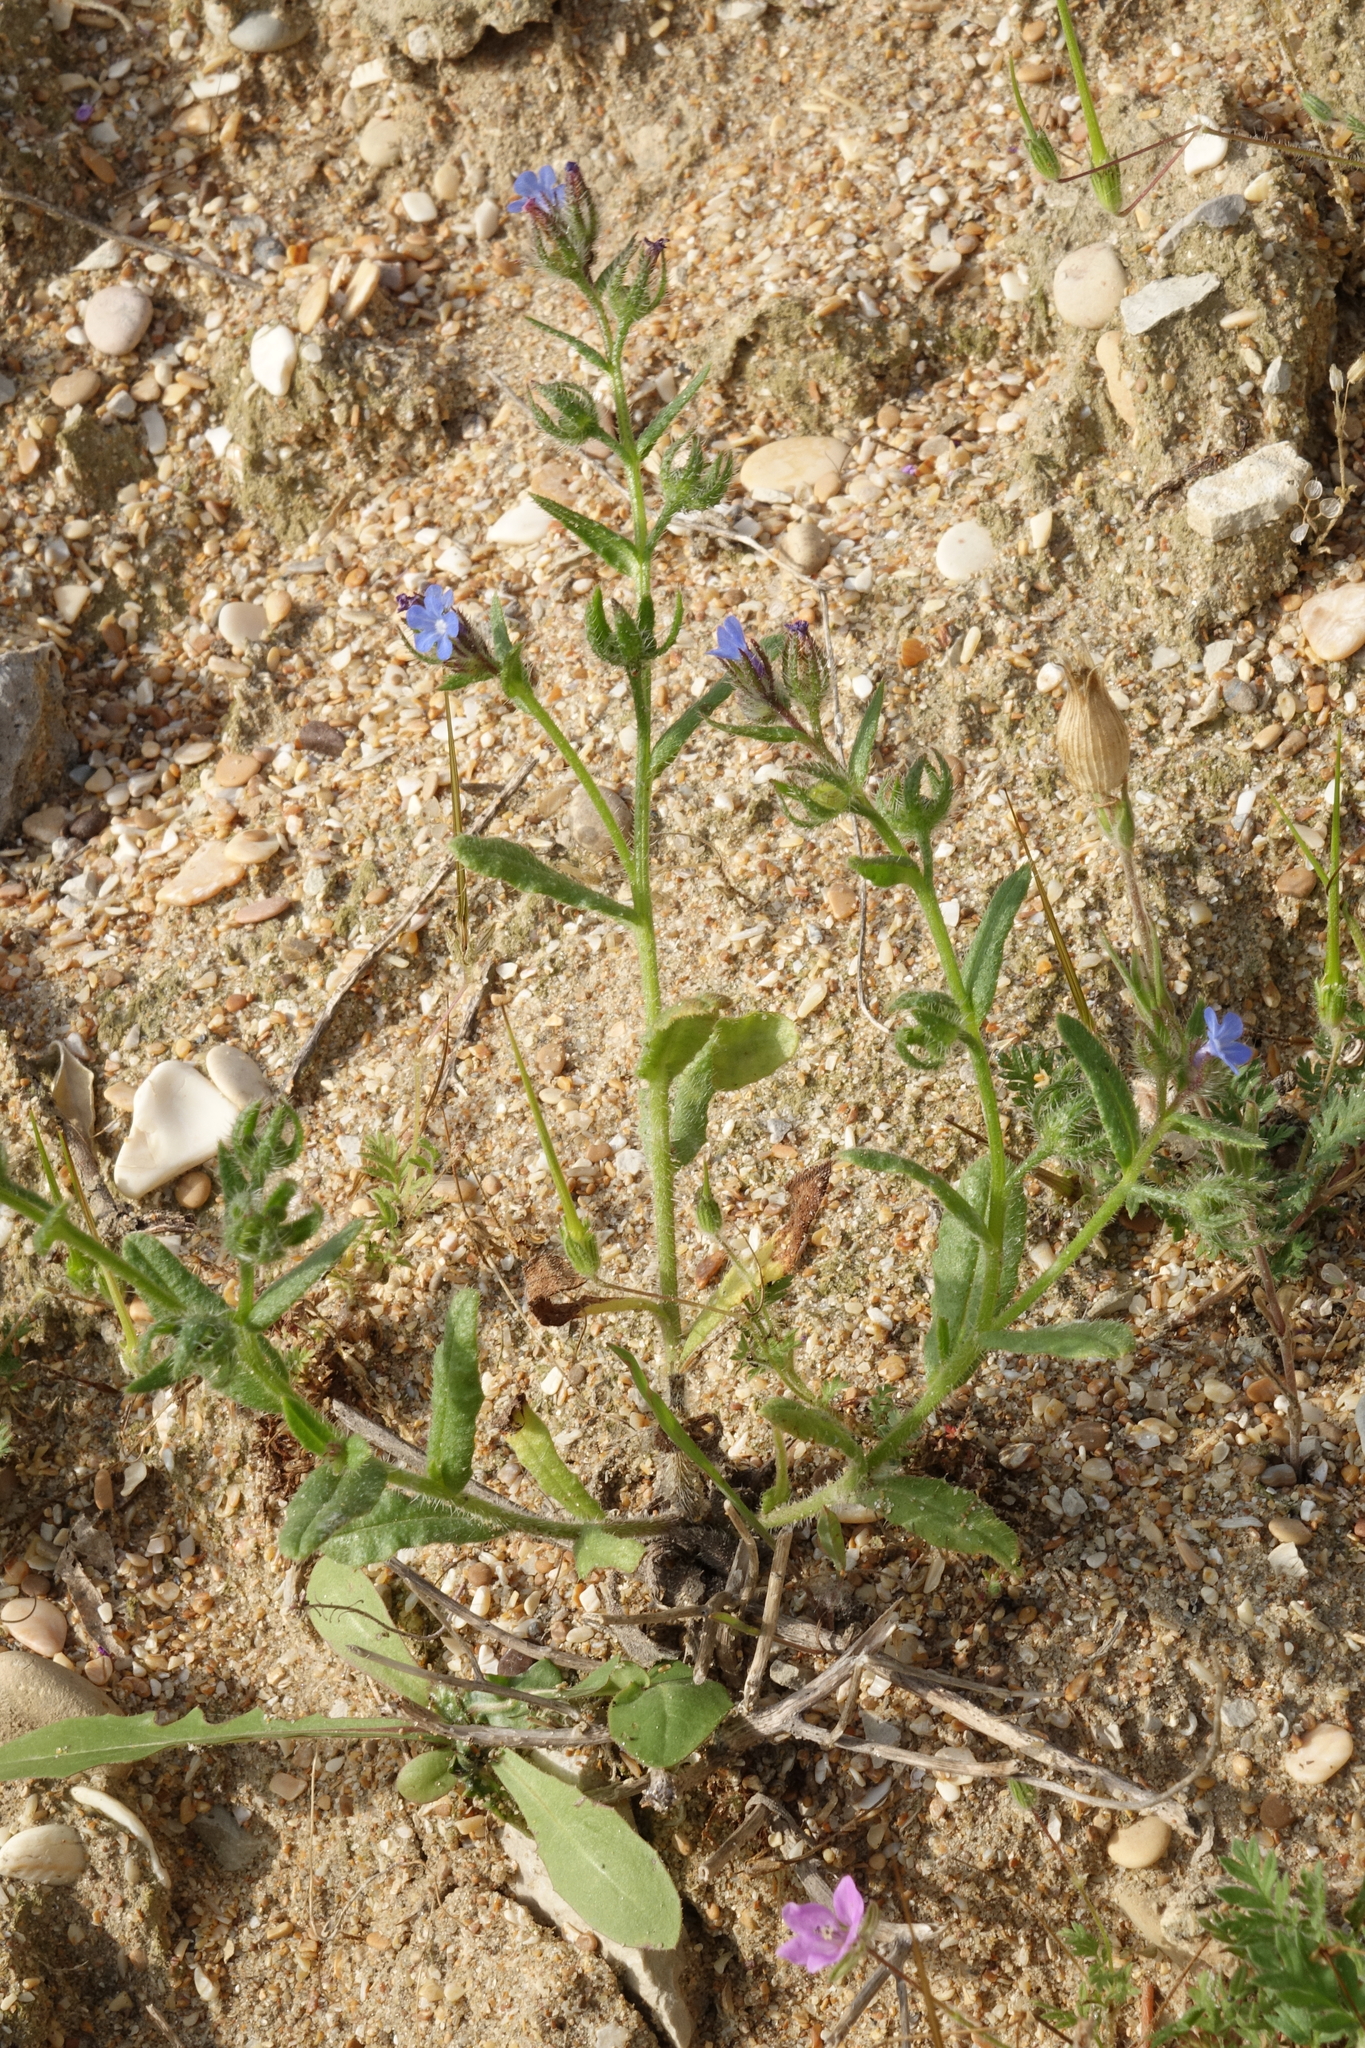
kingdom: Plantae
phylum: Tracheophyta
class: Magnoliopsida
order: Boraginales
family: Boraginaceae
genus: Lycopsis
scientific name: Lycopsis arvensis
